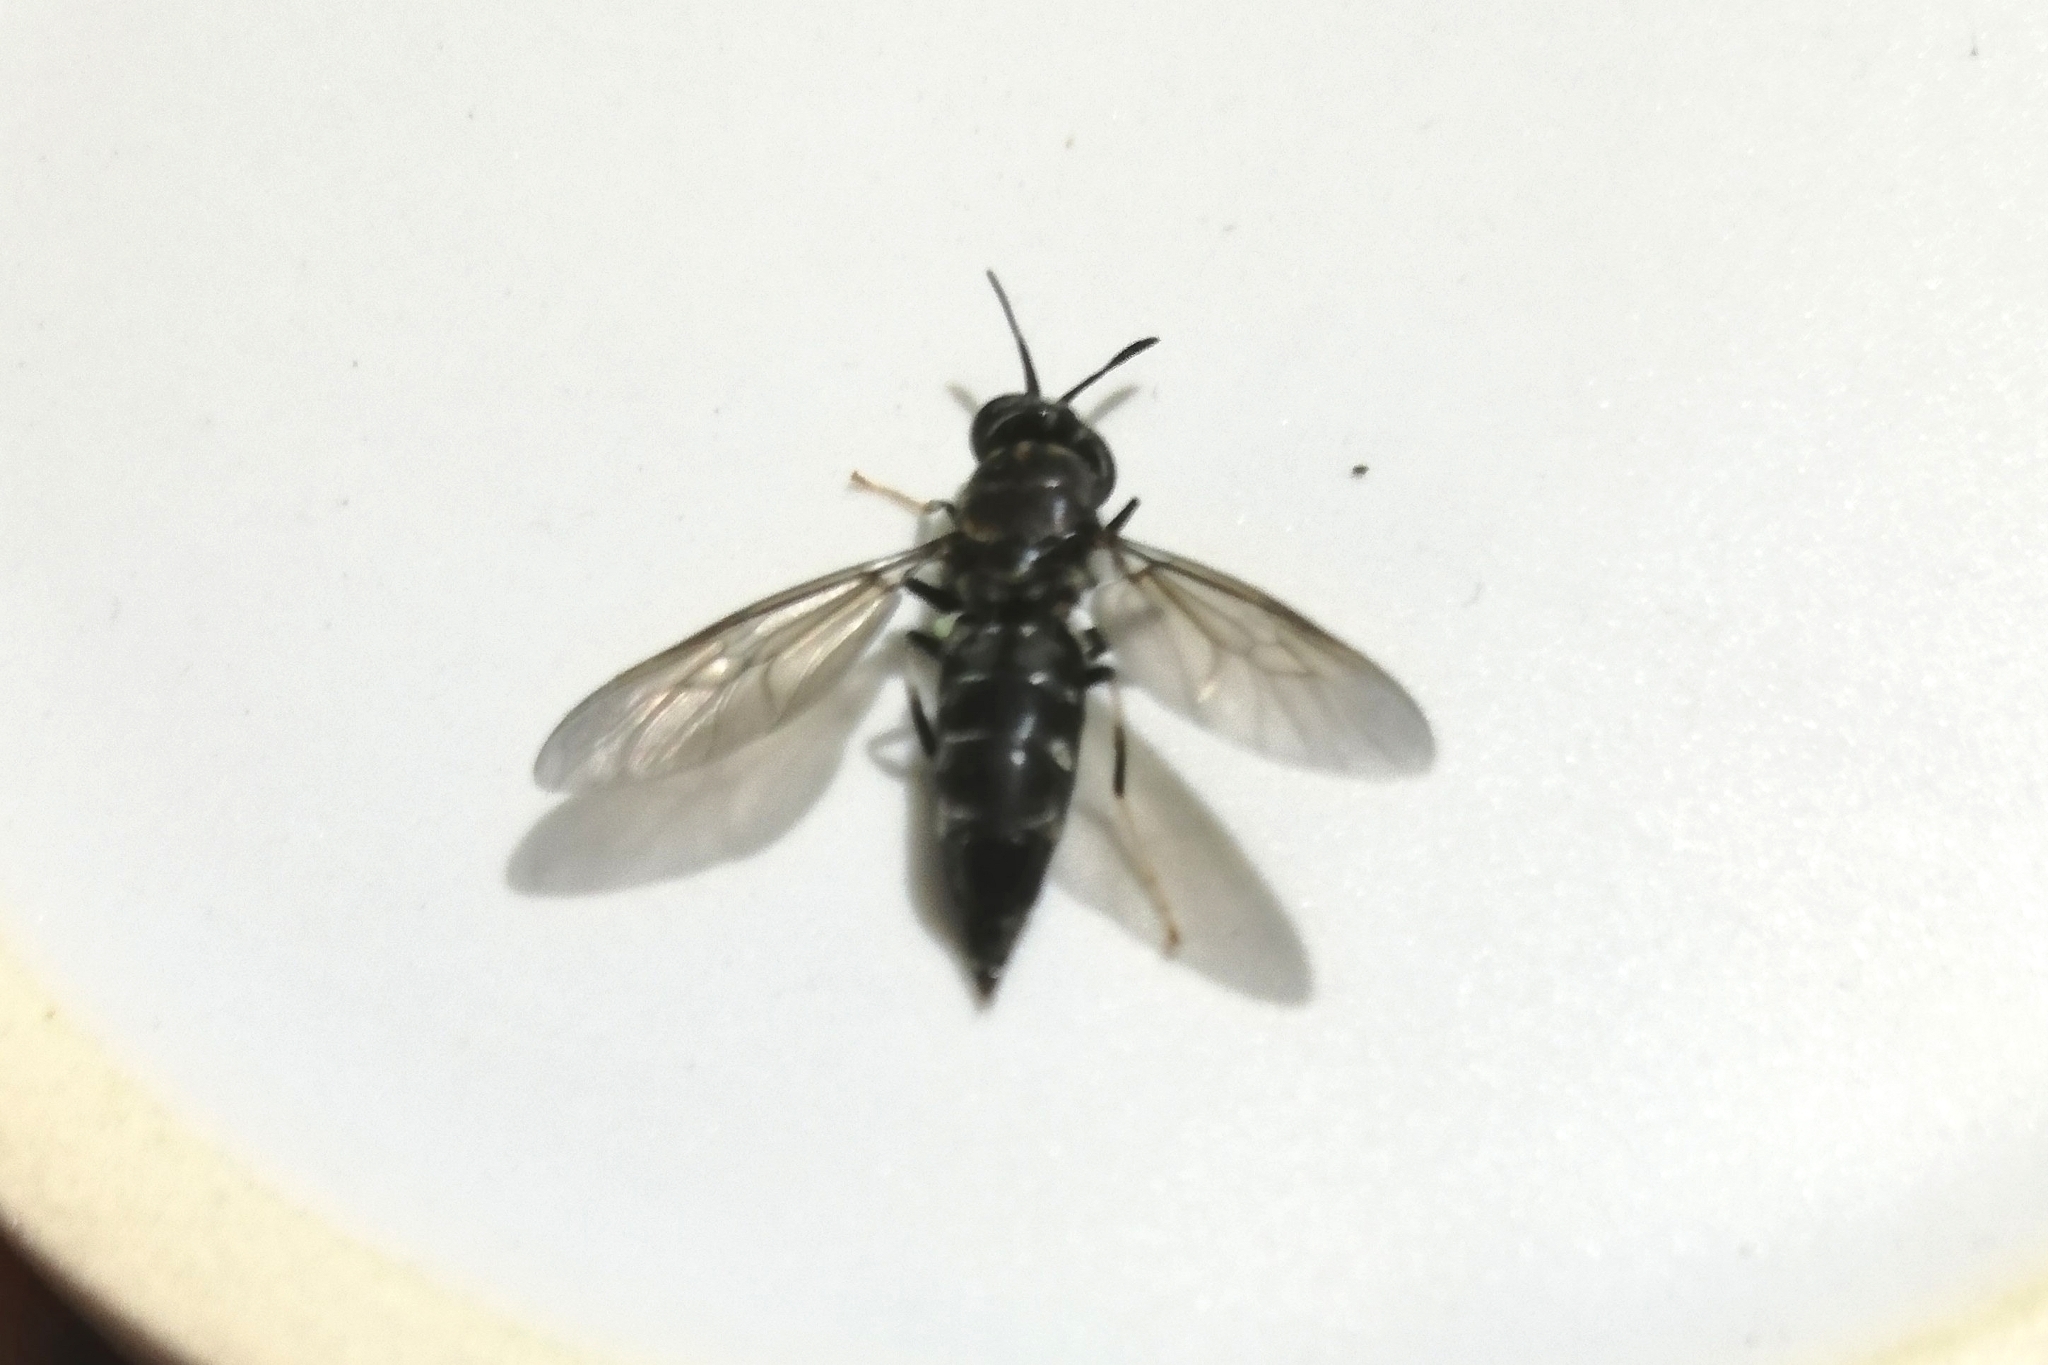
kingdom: Animalia
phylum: Arthropoda
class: Insecta
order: Diptera
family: Stratiomyidae
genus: Hermetia
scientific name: Hermetia illucens
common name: Black soldier fly
